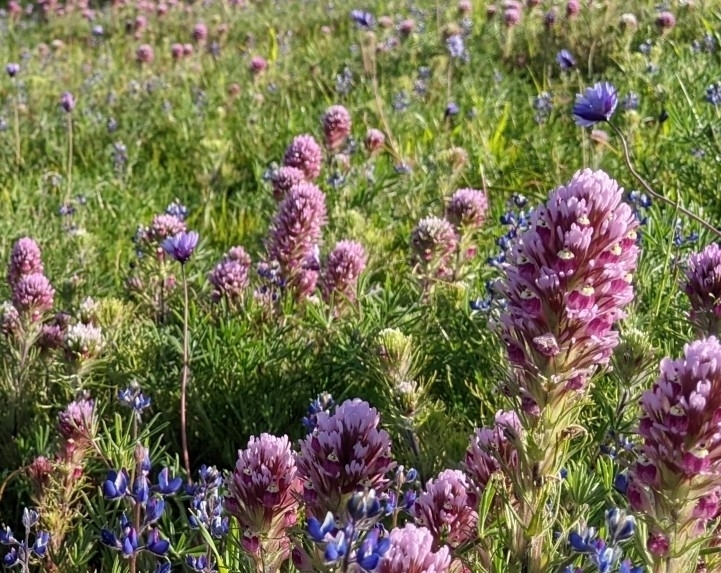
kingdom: Plantae
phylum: Tracheophyta
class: Liliopsida
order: Asparagales
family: Asparagaceae
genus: Dipterostemon
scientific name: Dipterostemon capitatus
